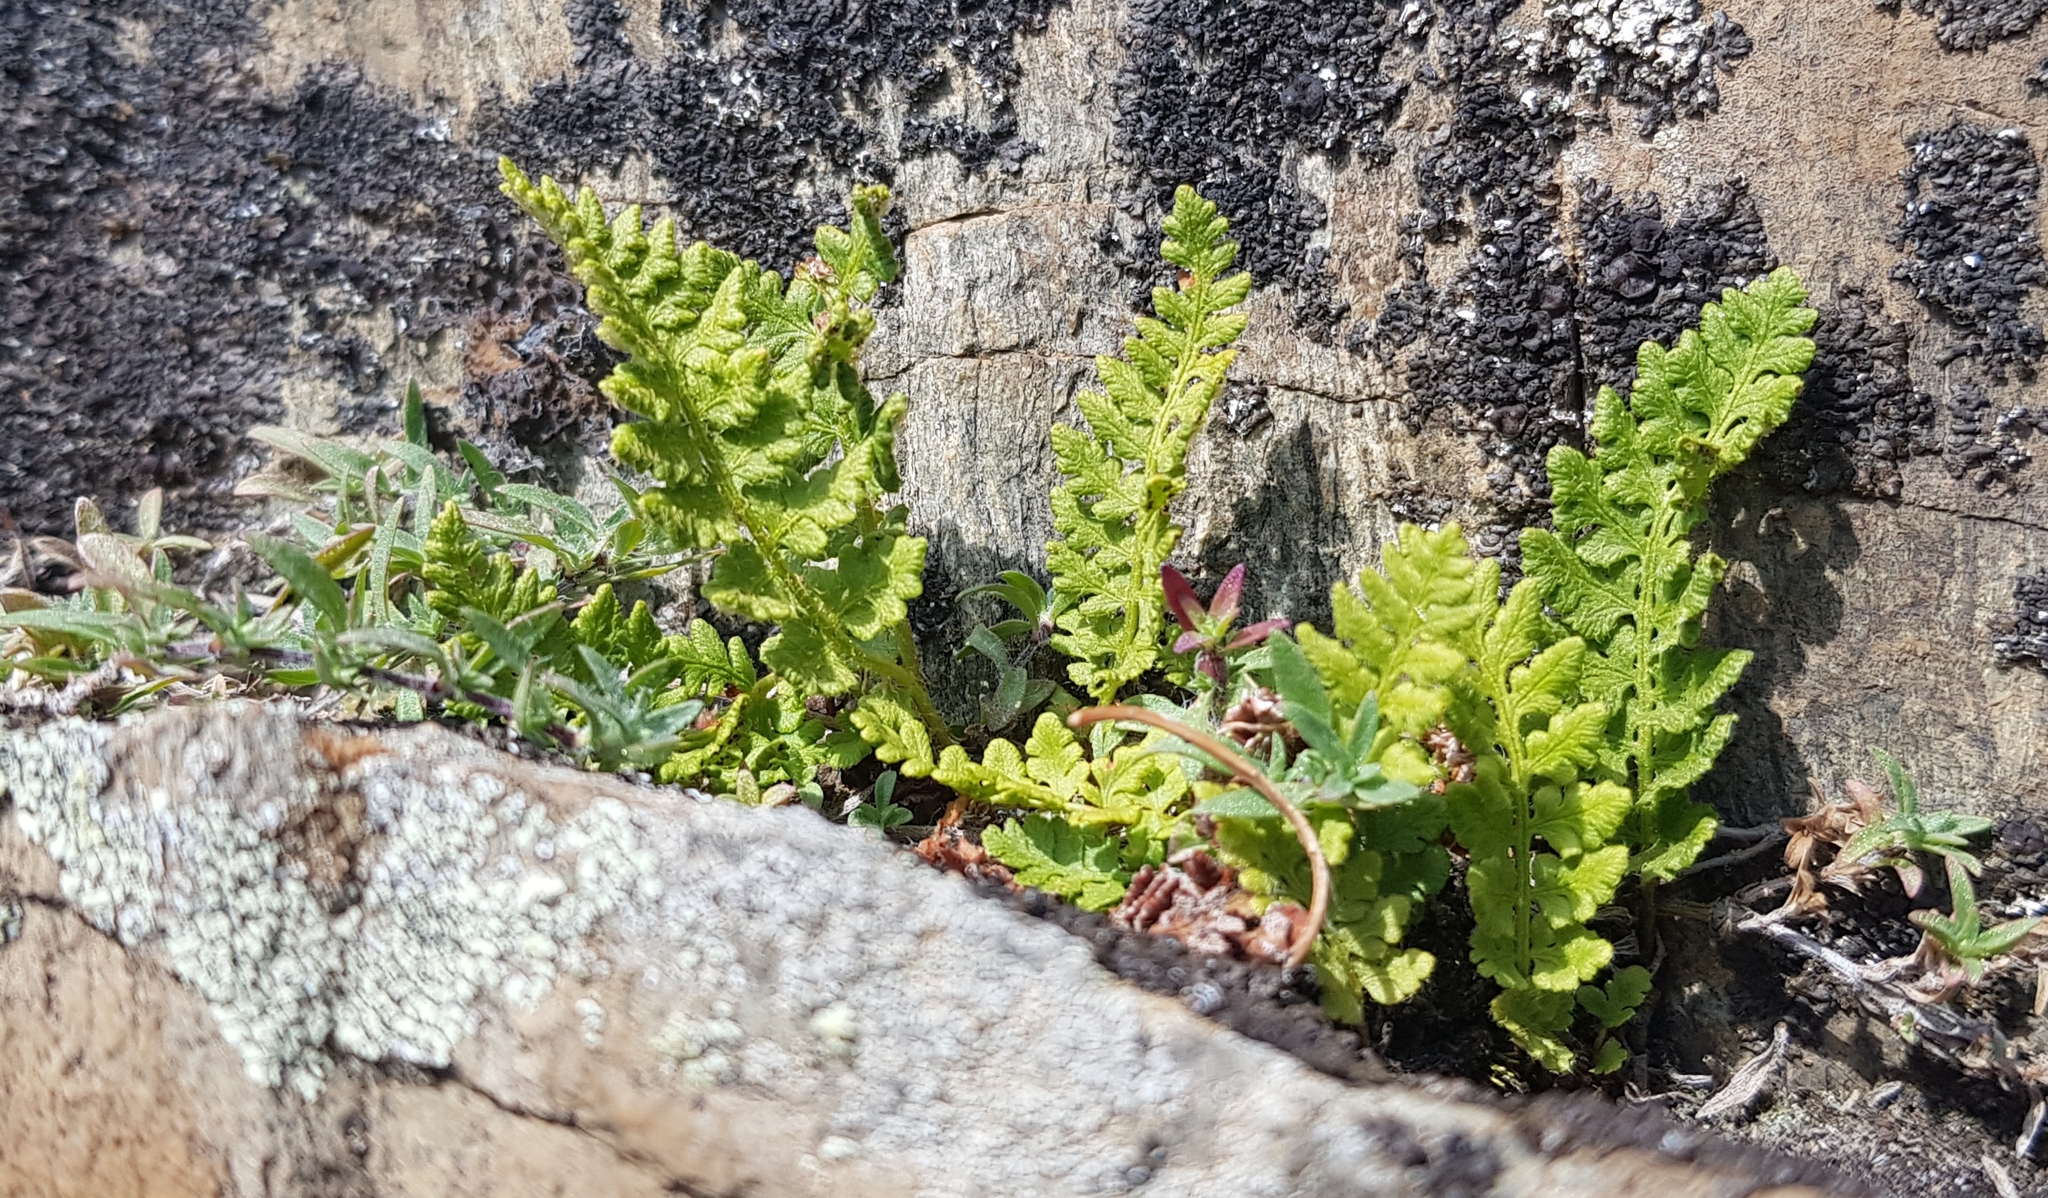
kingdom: Plantae
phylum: Tracheophyta
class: Polypodiopsida
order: Polypodiales
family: Woodsiaceae
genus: Woodsia
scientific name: Woodsia ilvensis
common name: Fragrant woodsia
